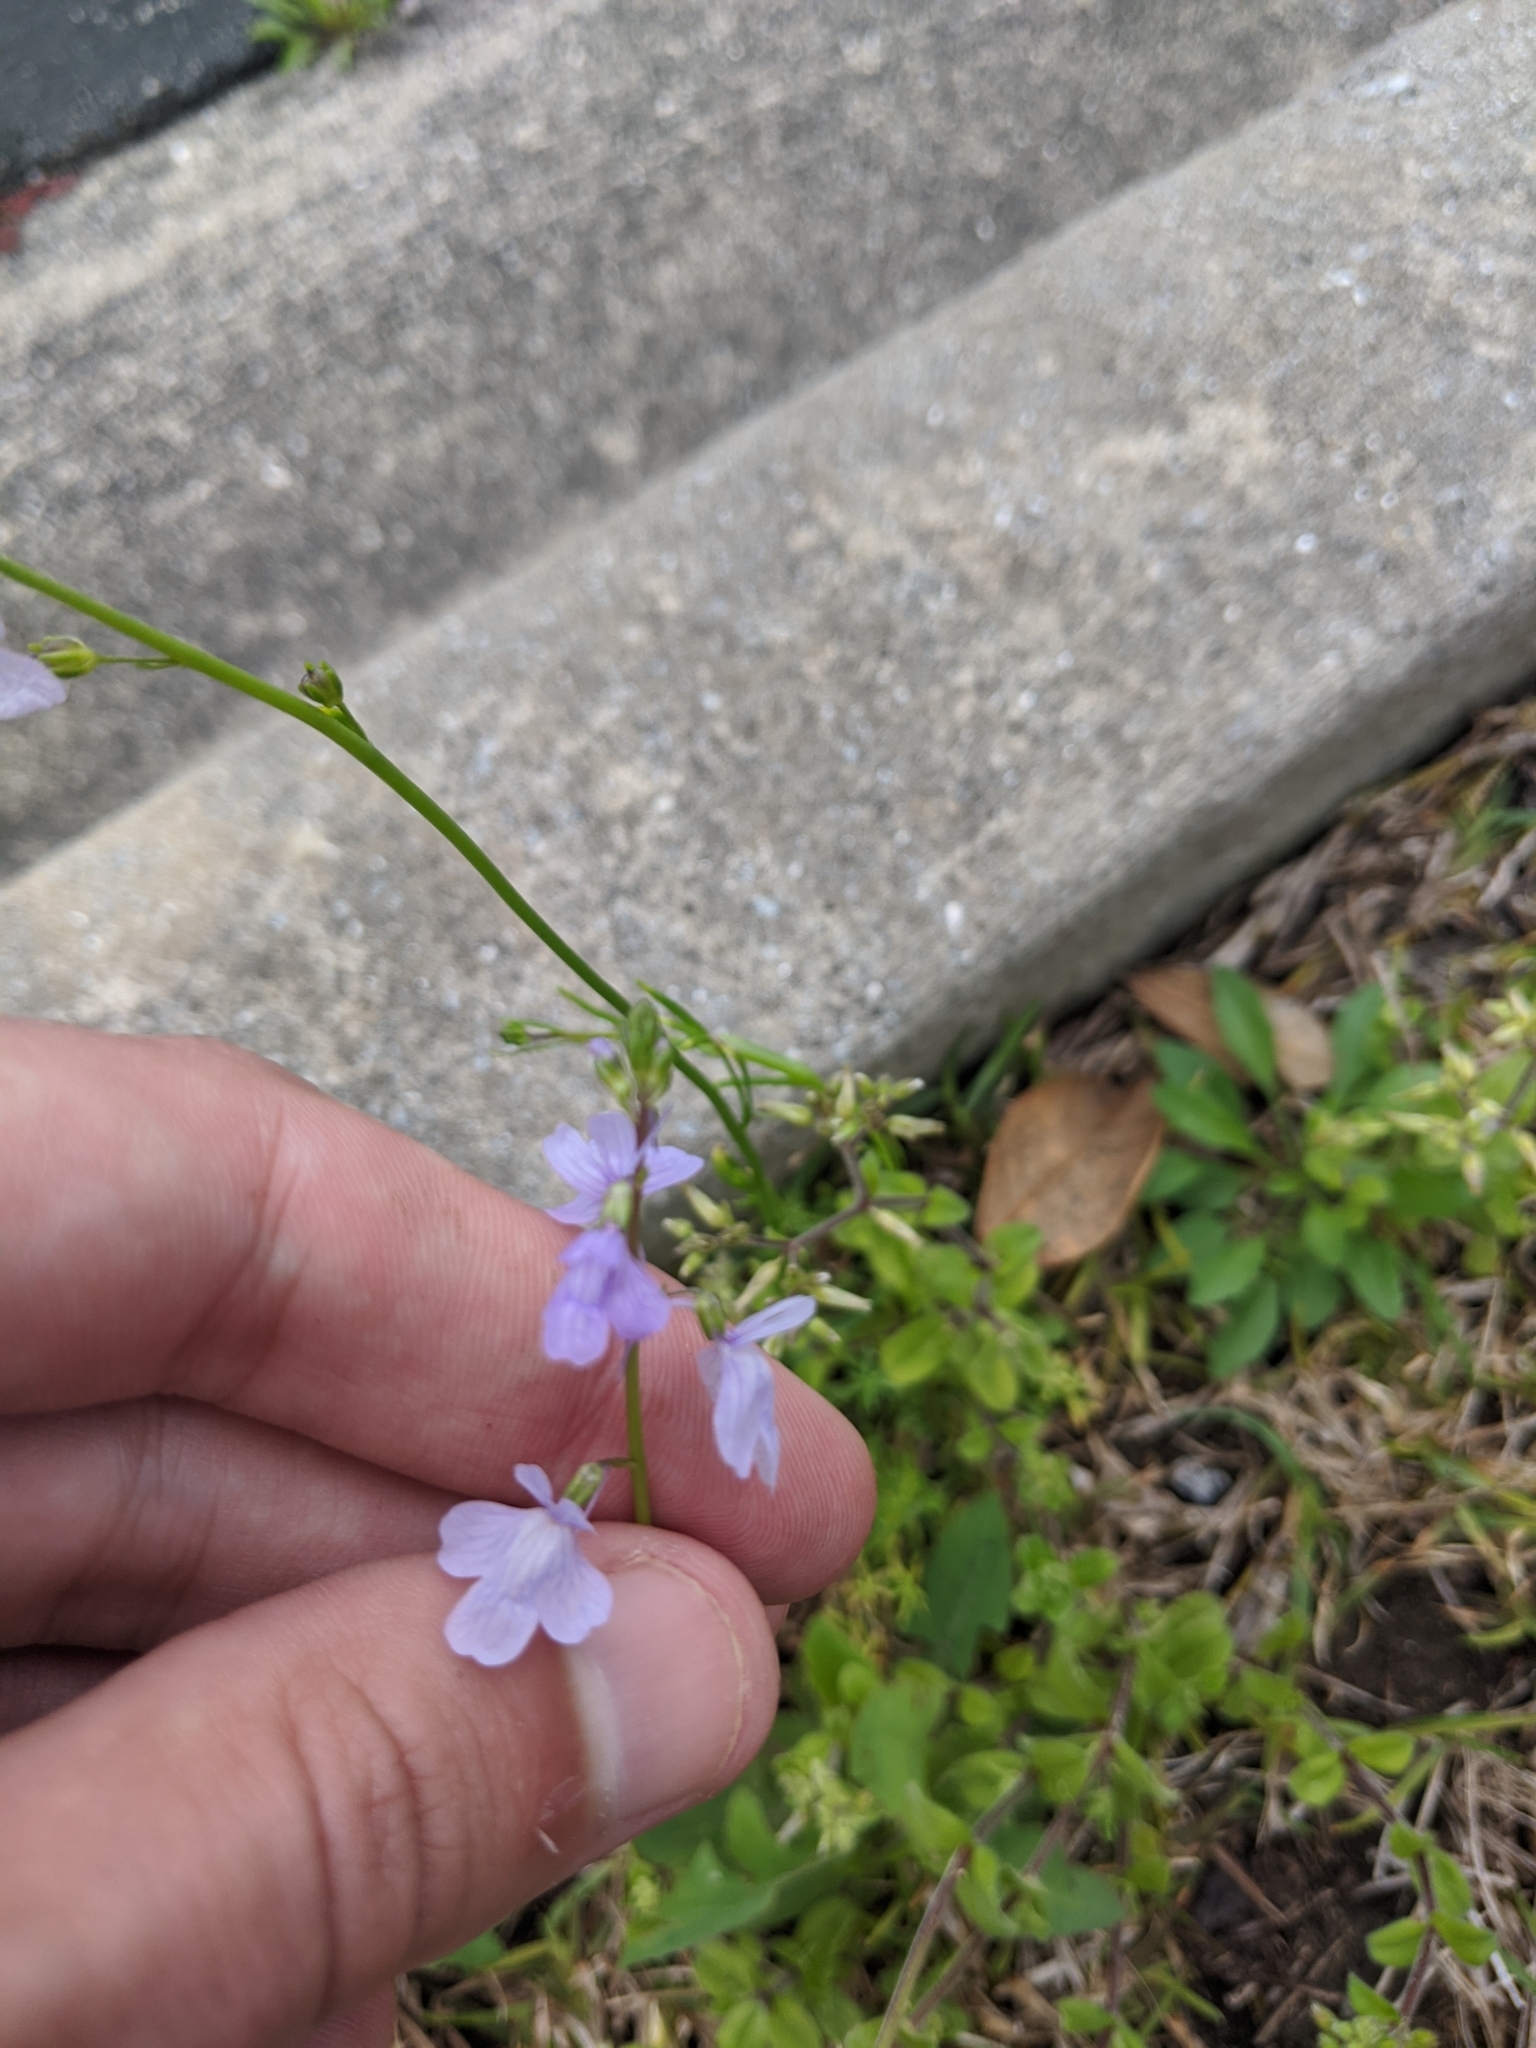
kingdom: Plantae
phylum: Tracheophyta
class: Magnoliopsida
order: Lamiales
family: Plantaginaceae
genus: Nuttallanthus
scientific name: Nuttallanthus canadensis
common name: Blue toadflax
